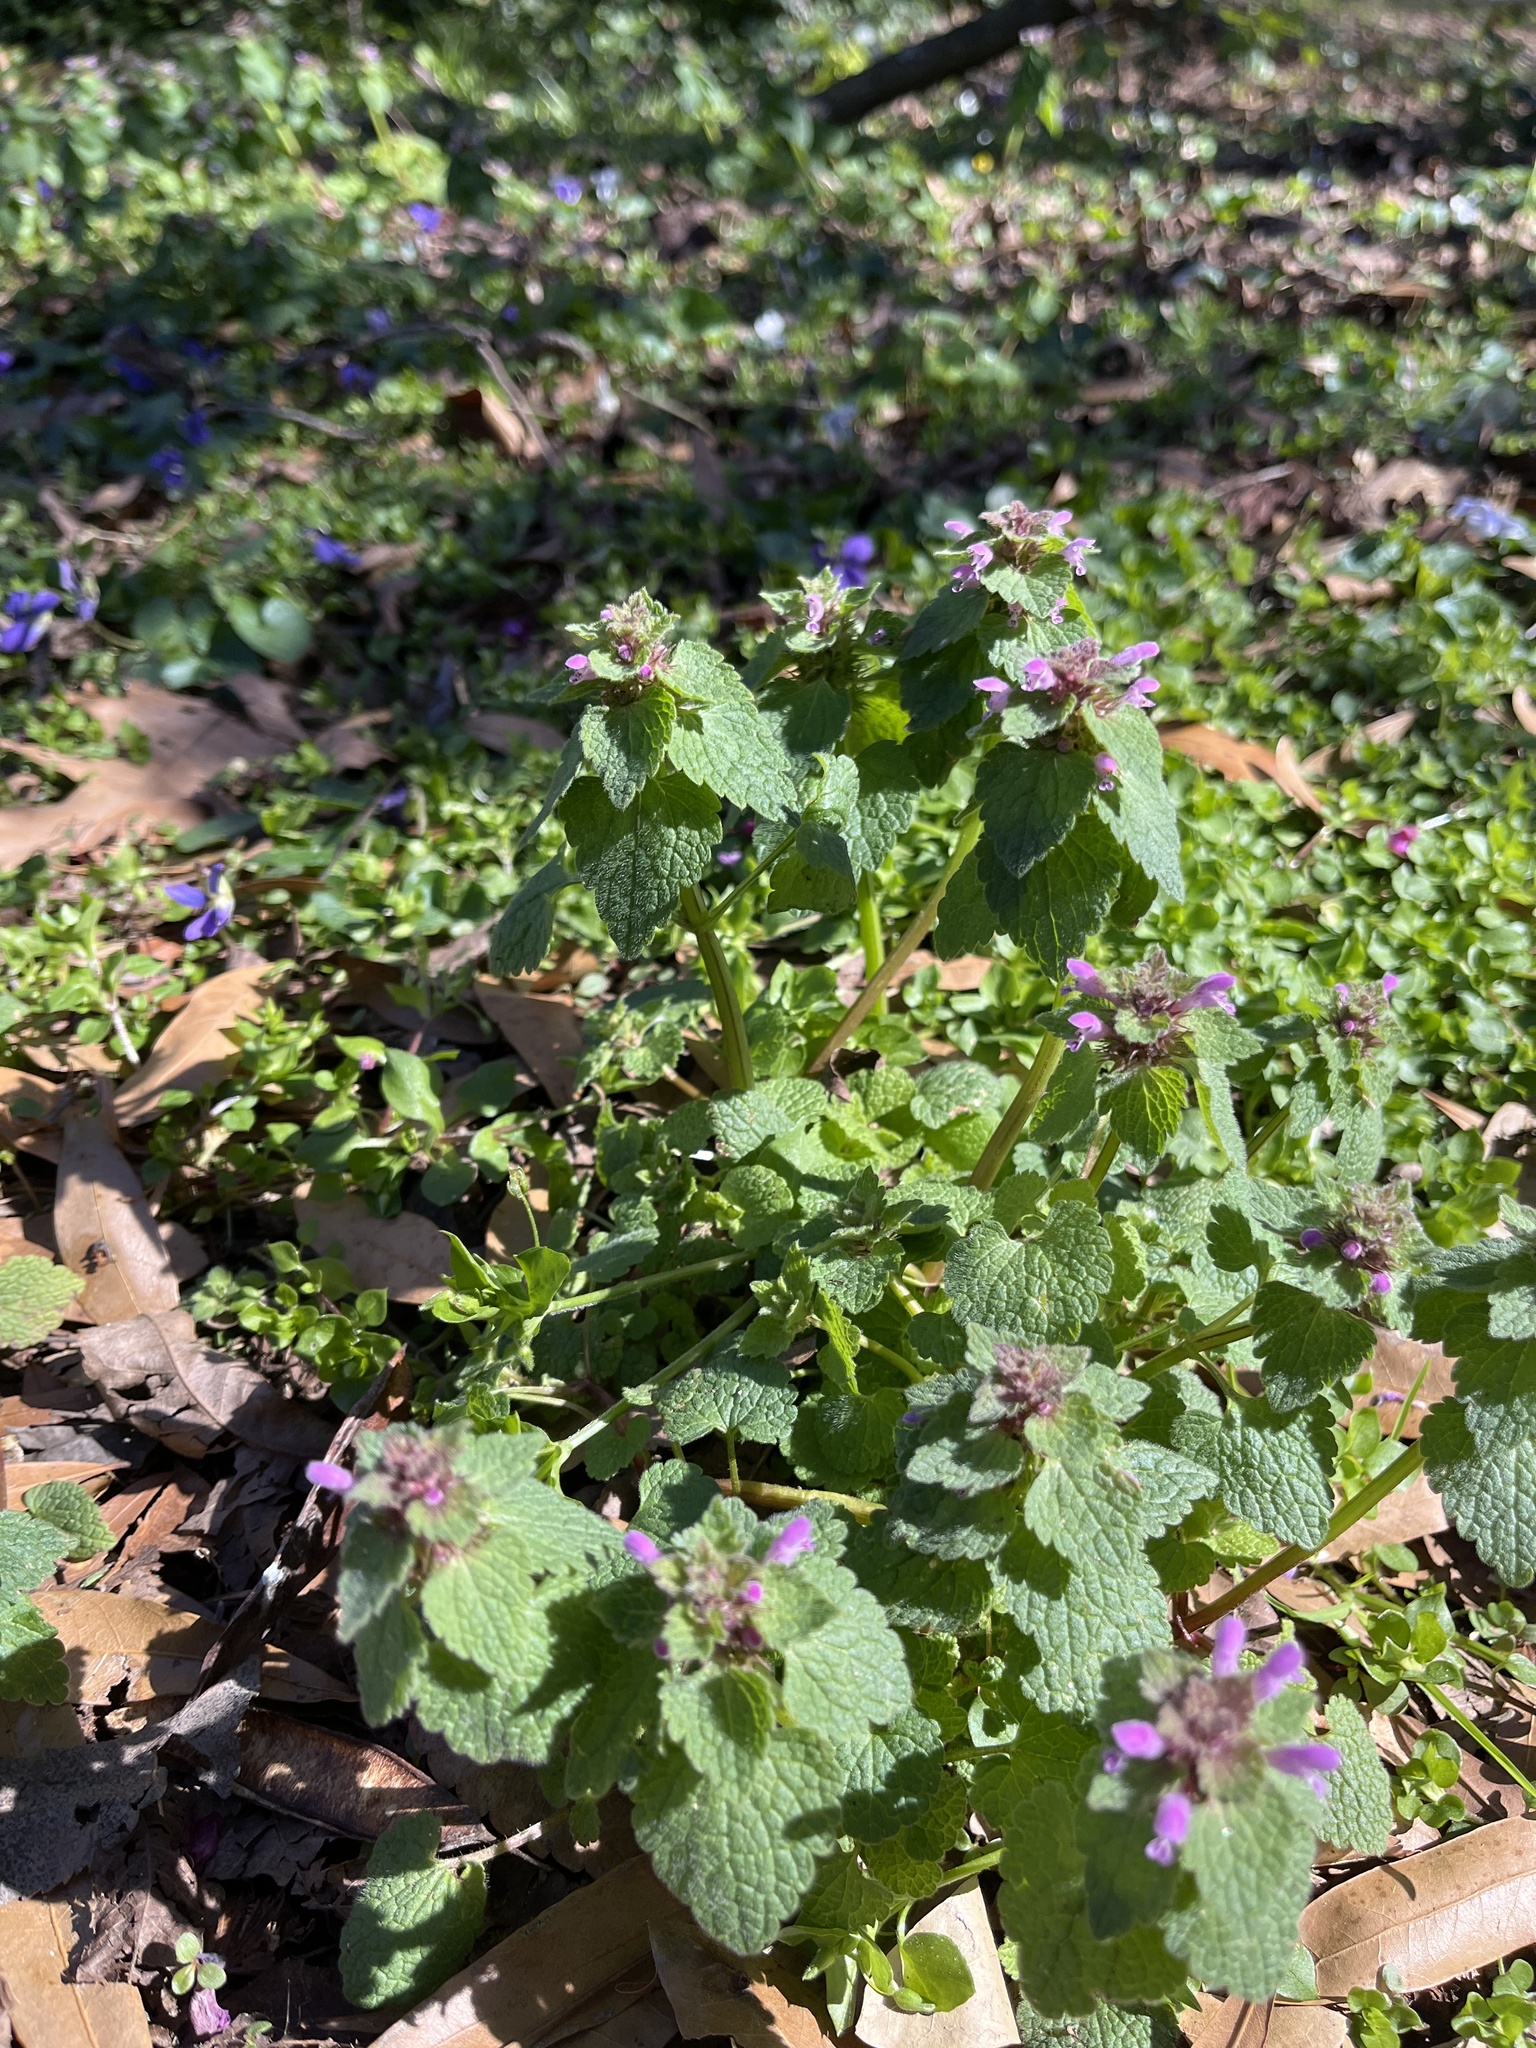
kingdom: Plantae
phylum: Tracheophyta
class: Magnoliopsida
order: Lamiales
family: Lamiaceae
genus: Lamium
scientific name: Lamium purpureum
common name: Red dead-nettle
